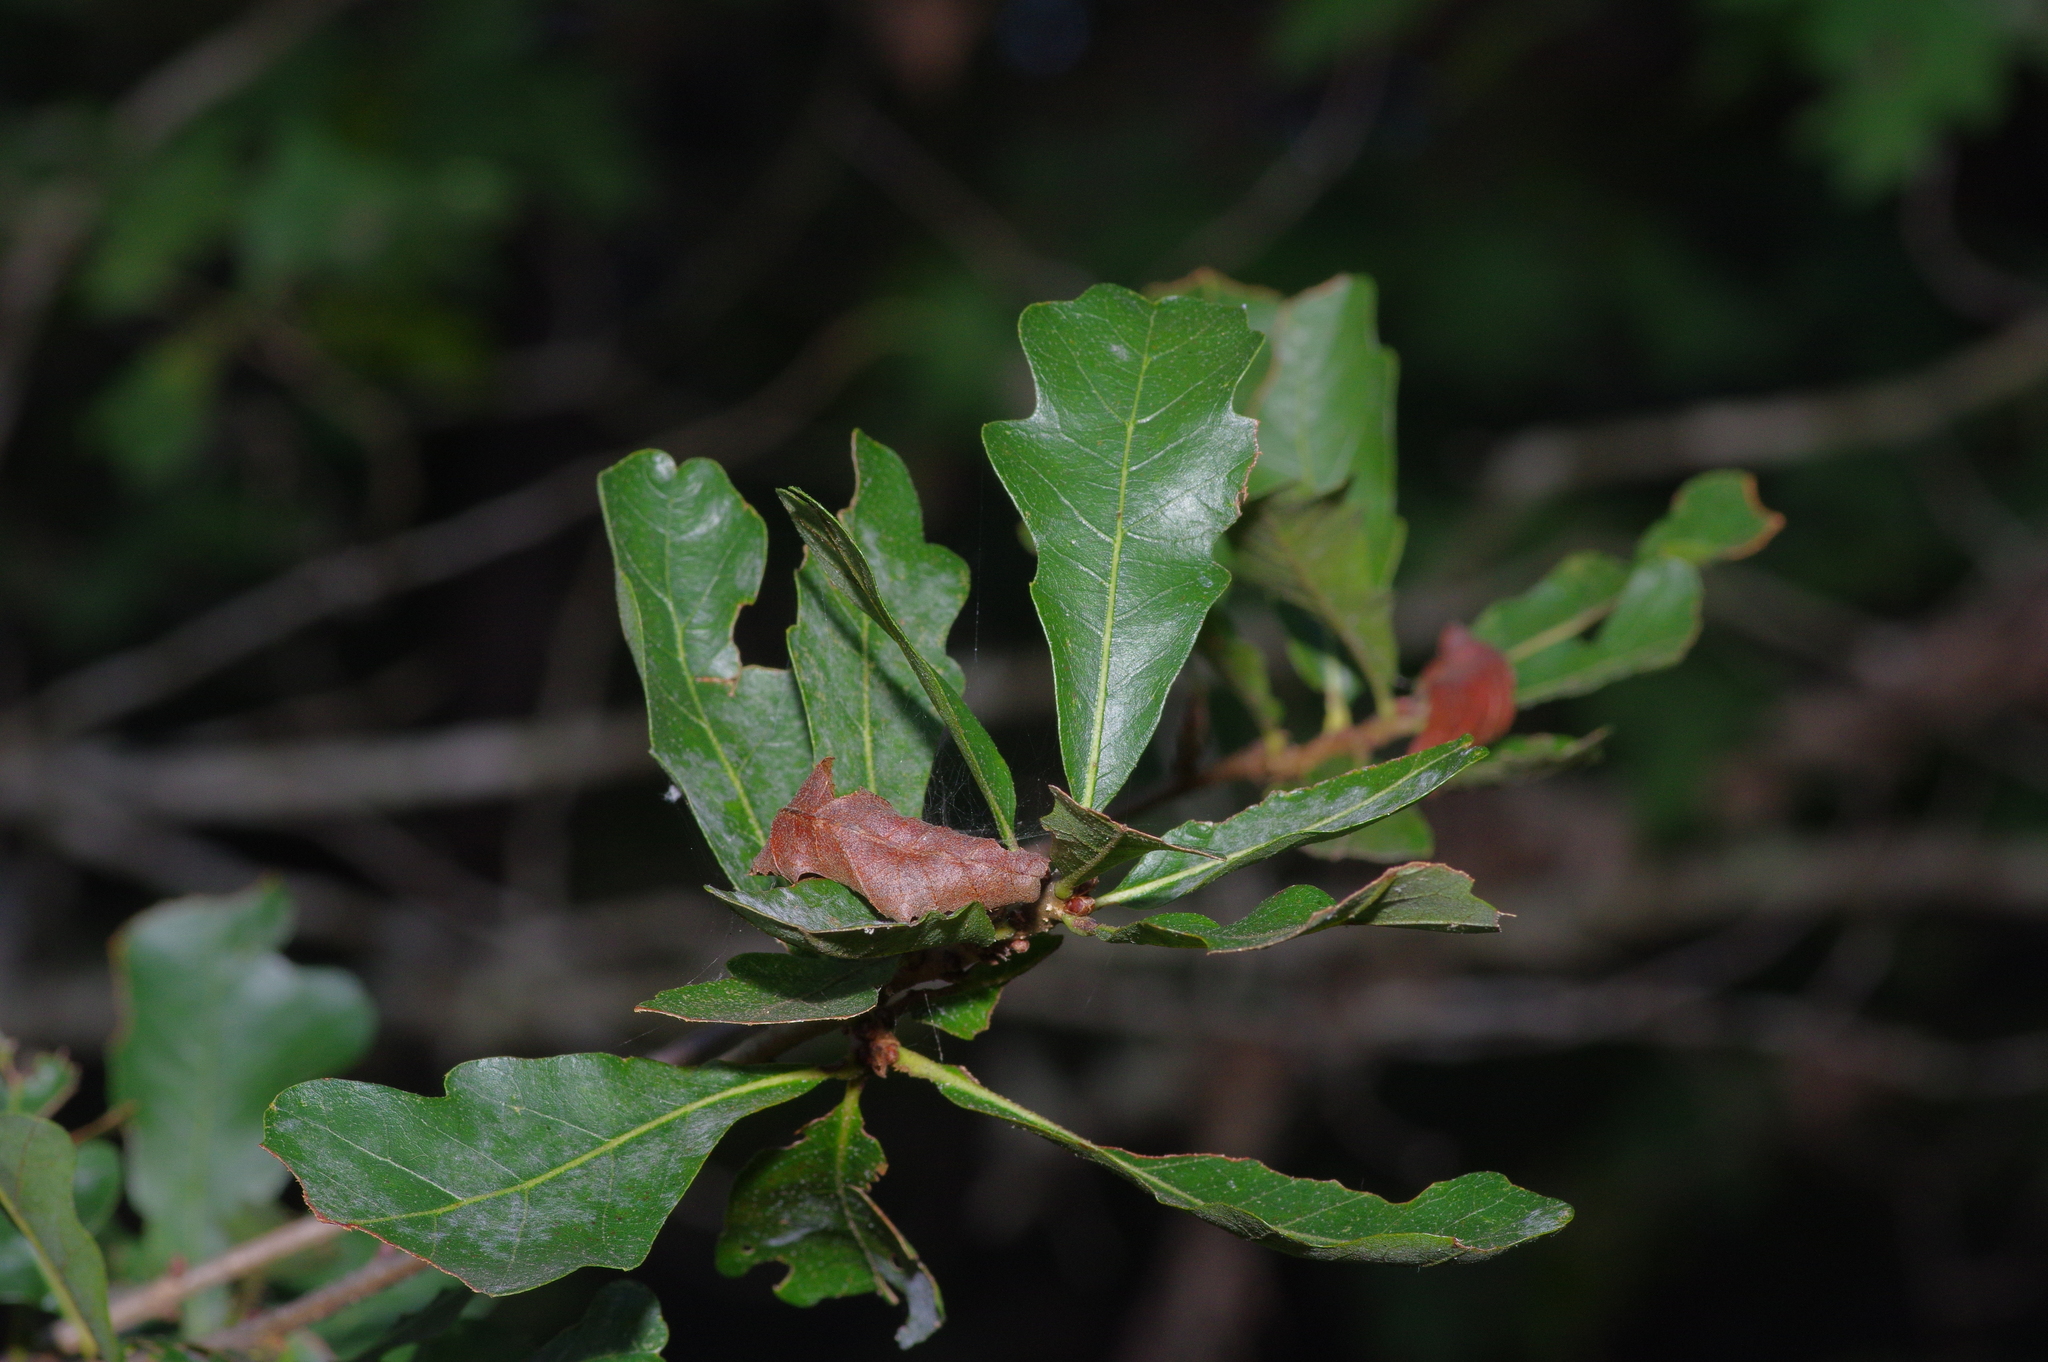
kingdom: Plantae
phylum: Tracheophyta
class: Magnoliopsida
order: Fagales
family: Fagaceae
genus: Quercus
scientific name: Quercus sinuata
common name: Durand oak
